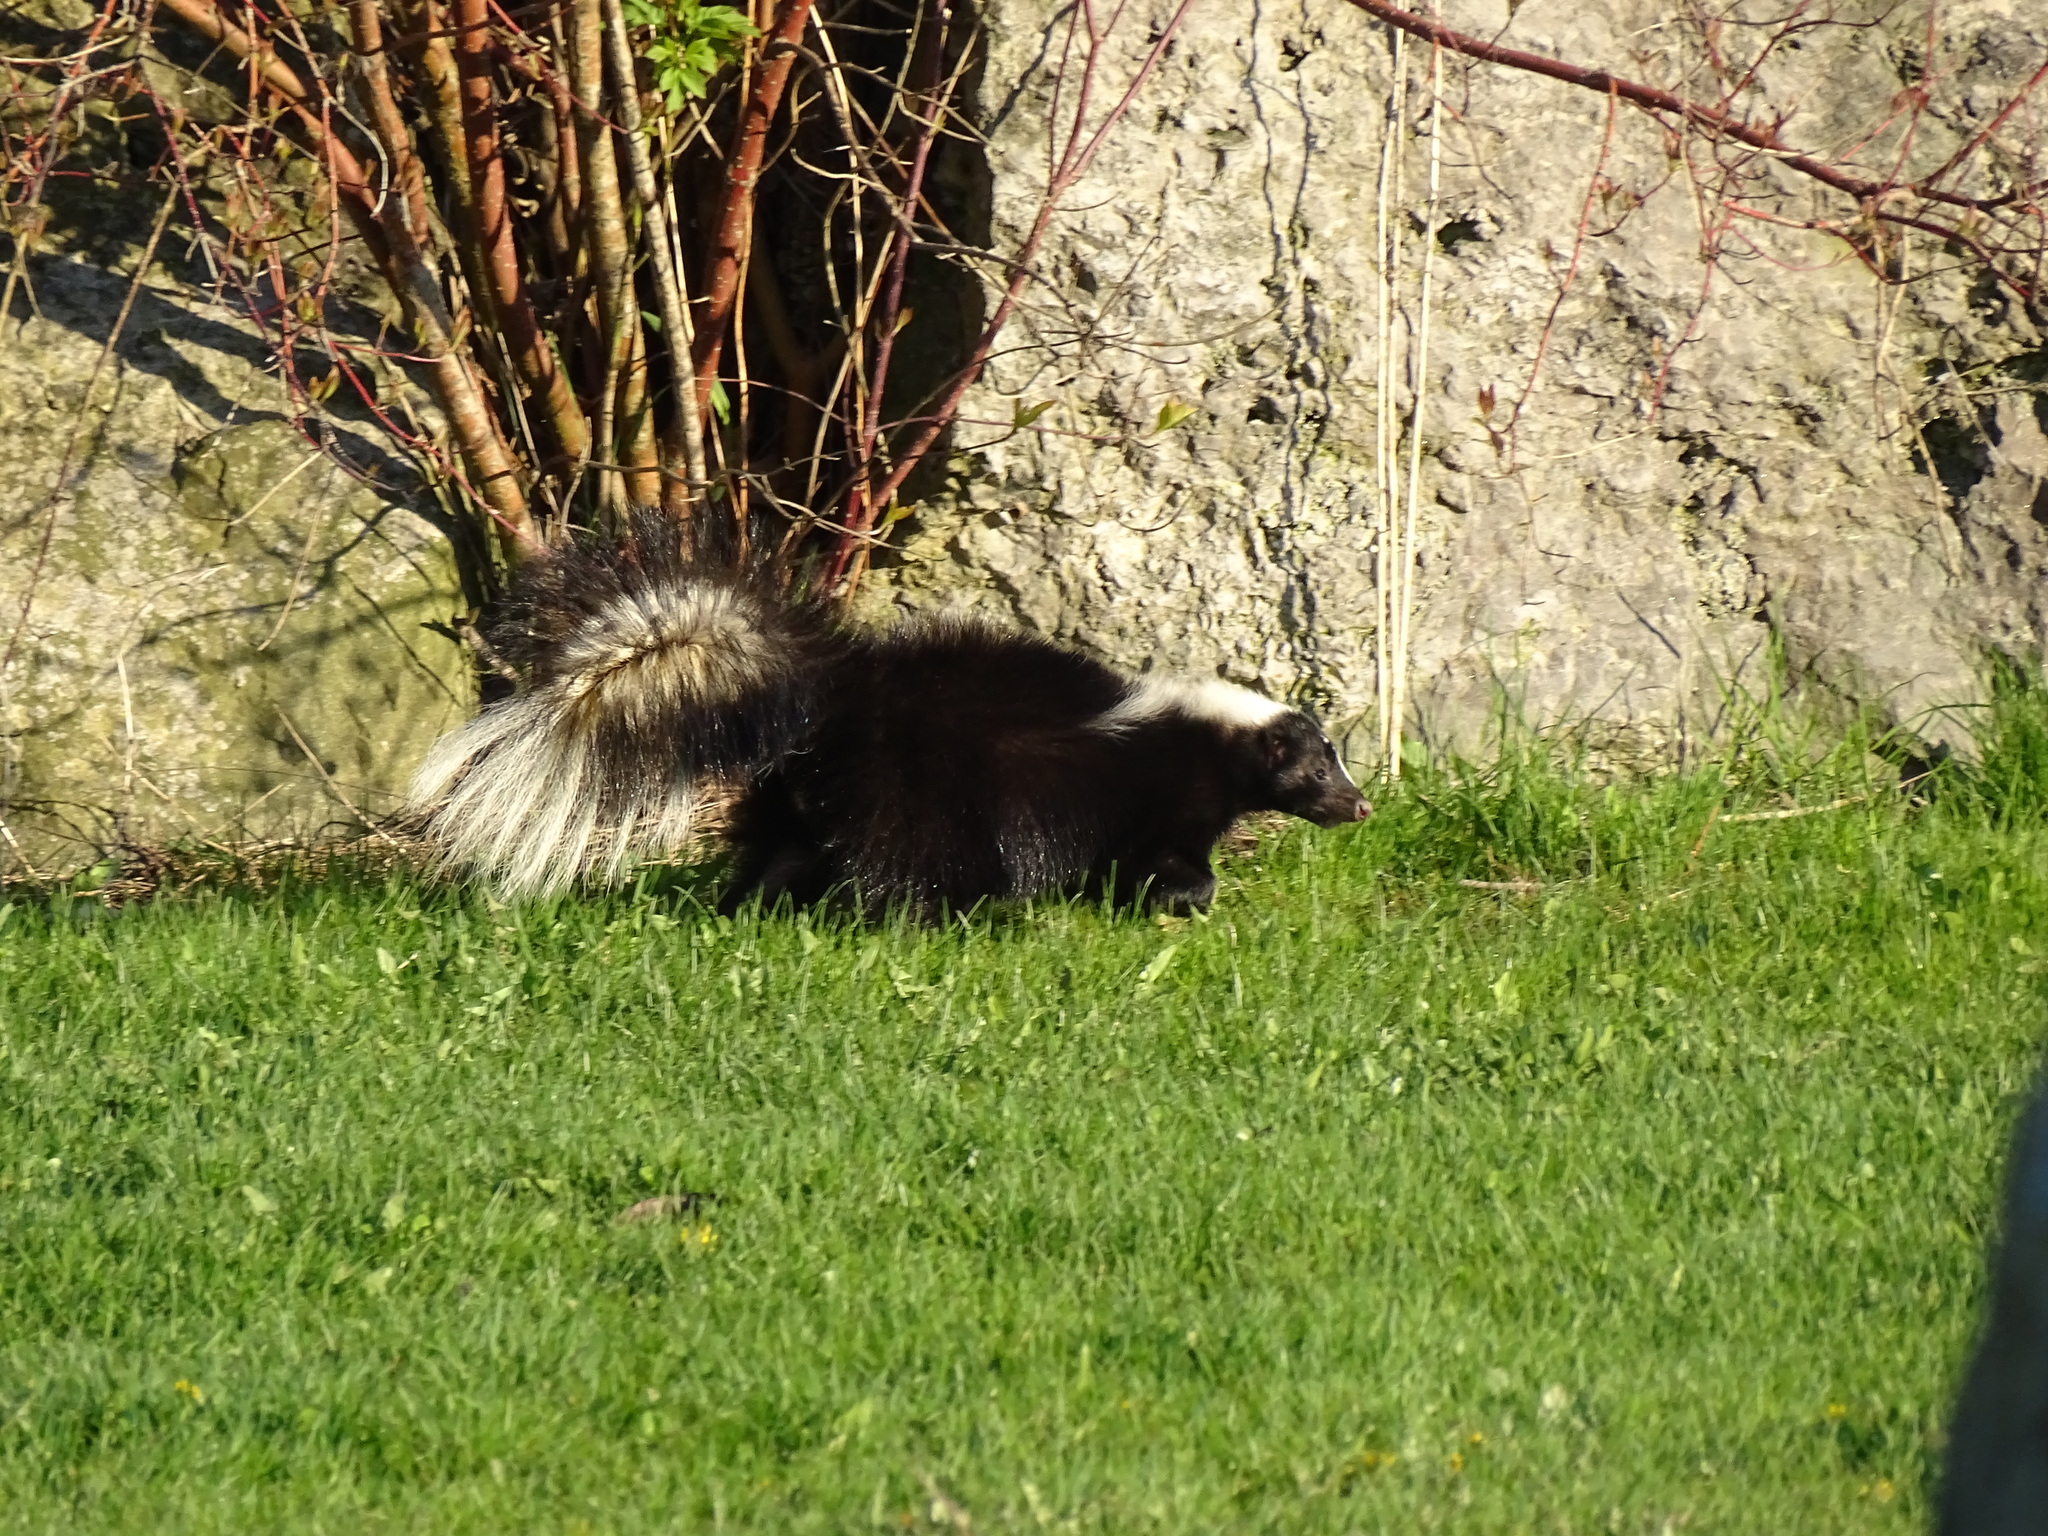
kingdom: Animalia
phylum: Chordata
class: Mammalia
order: Carnivora
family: Mephitidae
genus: Mephitis
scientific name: Mephitis mephitis
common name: Striped skunk
